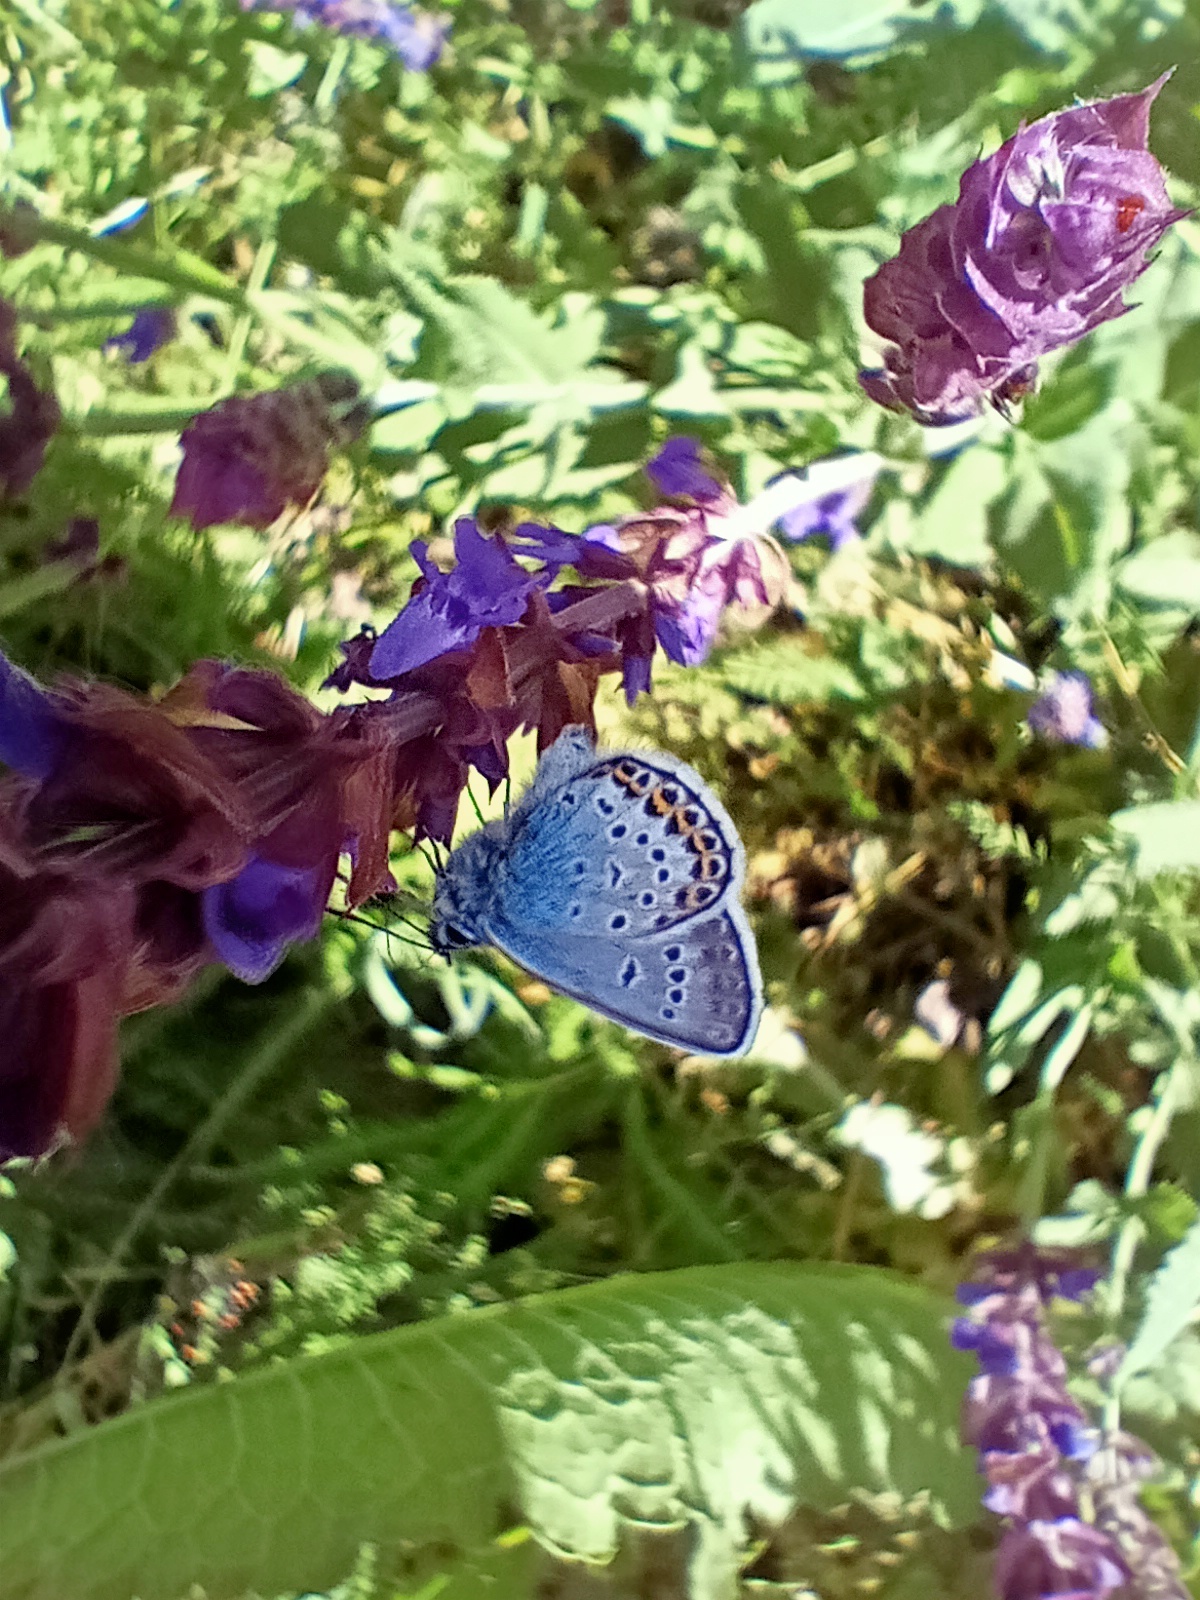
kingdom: Animalia
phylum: Arthropoda
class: Insecta
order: Lepidoptera
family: Lycaenidae
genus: Plebejus
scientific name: Plebejus argus
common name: Silver-studded blue
